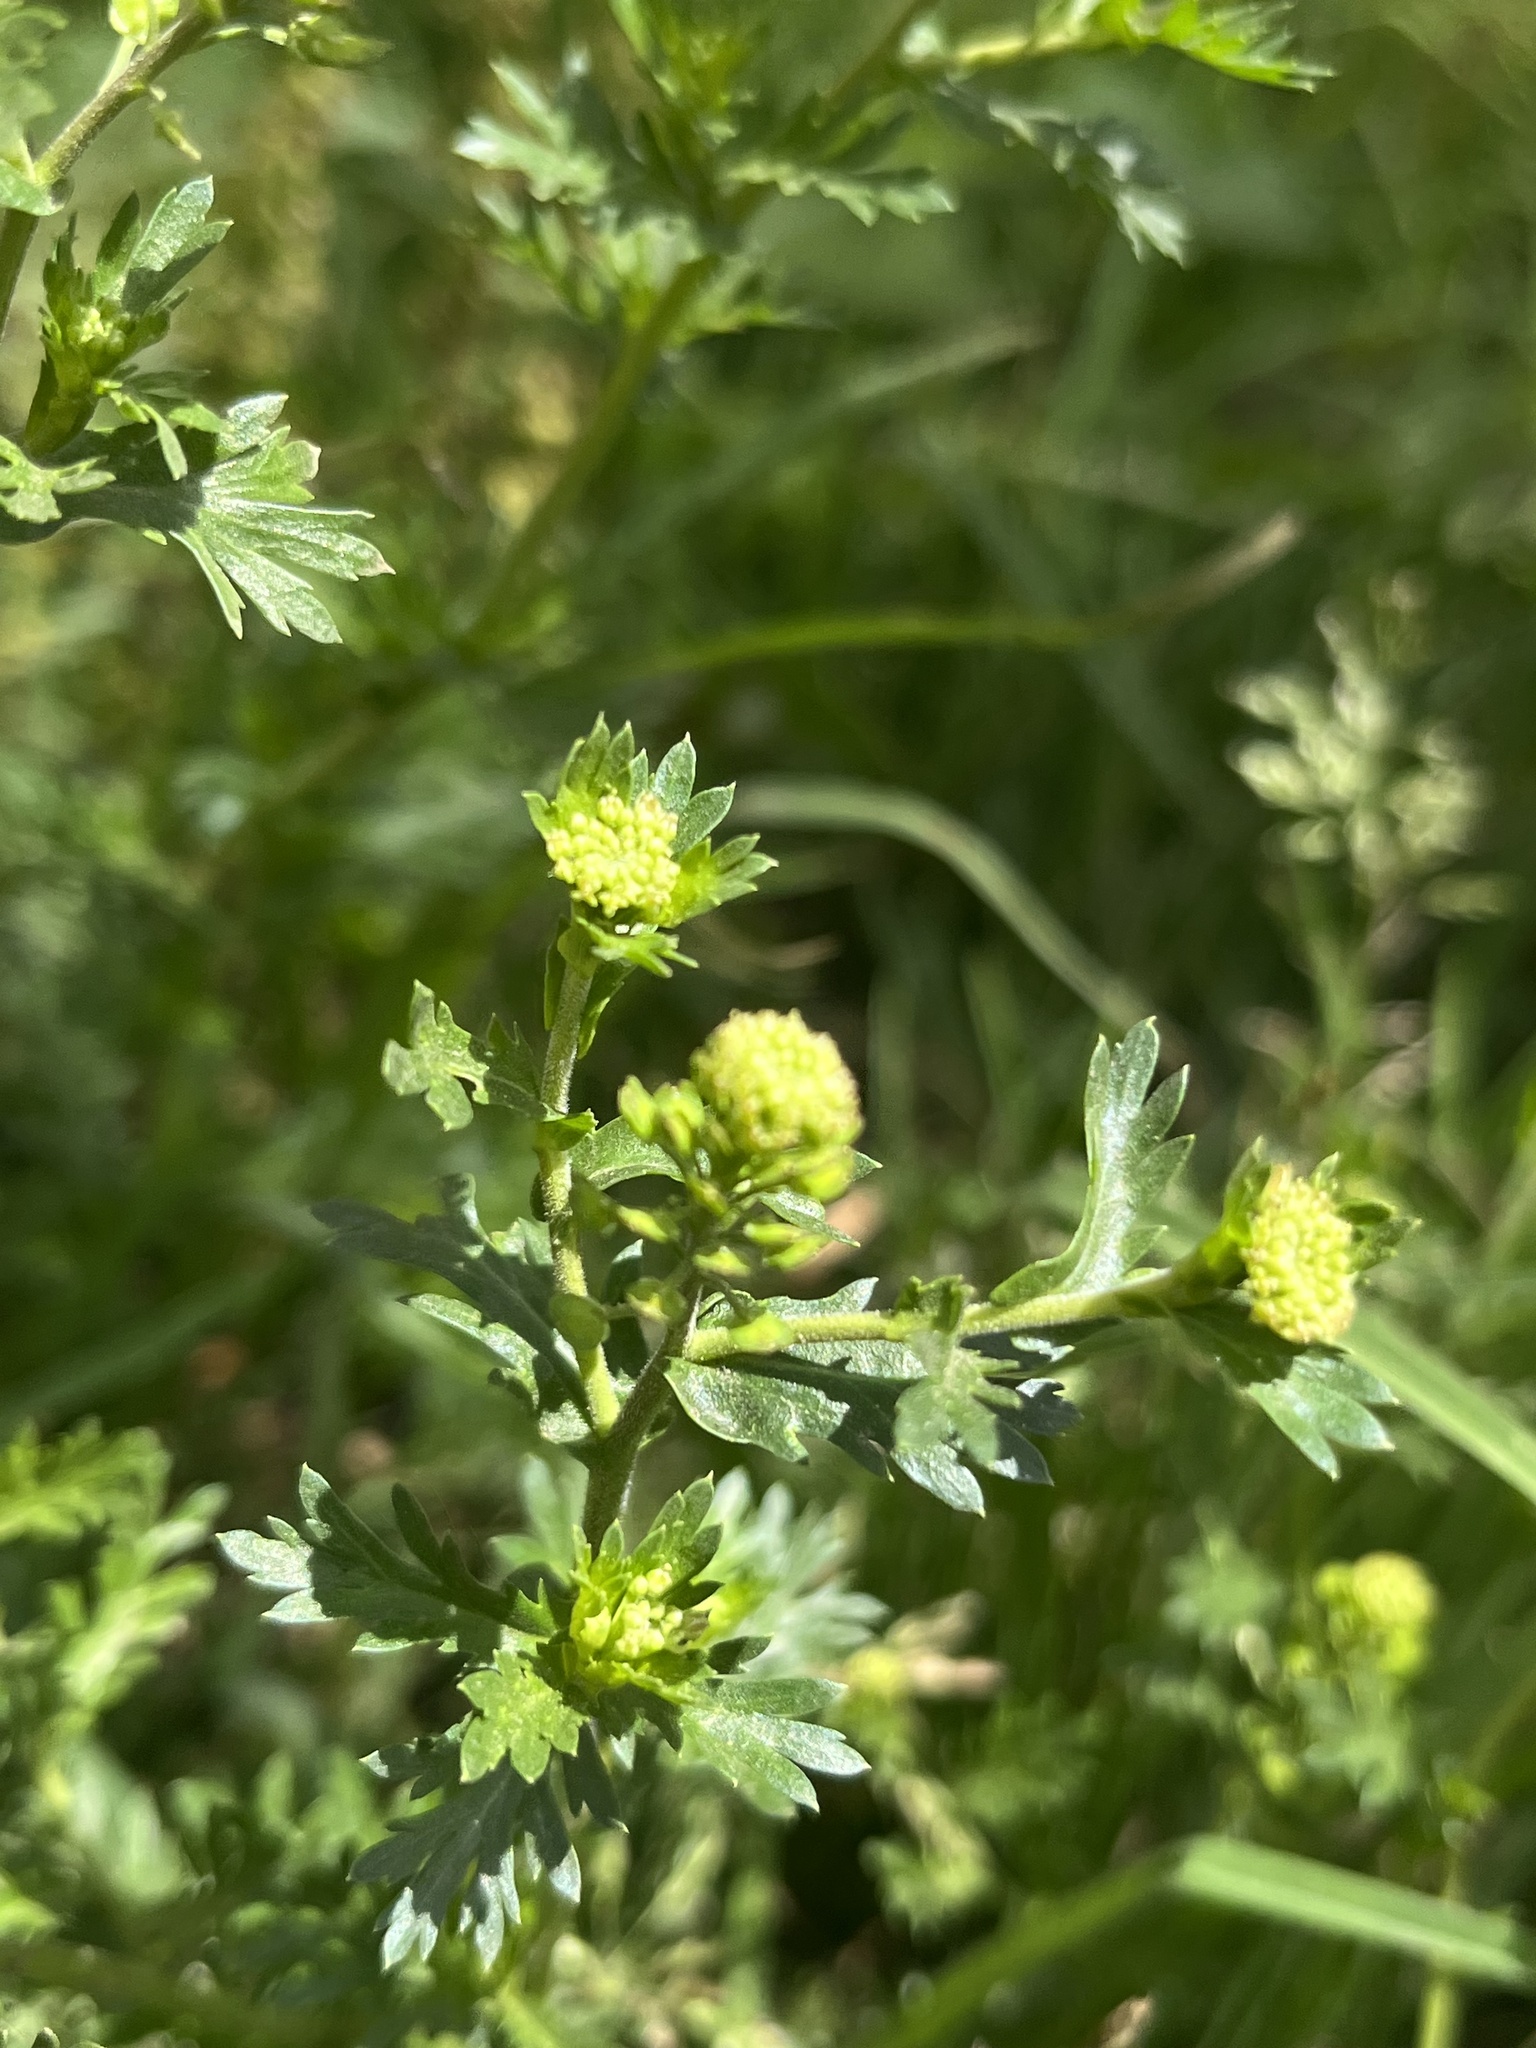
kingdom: Plantae
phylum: Tracheophyta
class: Magnoliopsida
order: Brassicales
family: Brassicaceae
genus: Lepidium
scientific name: Lepidium bipinnatifidum
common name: Wayside pepperwort
